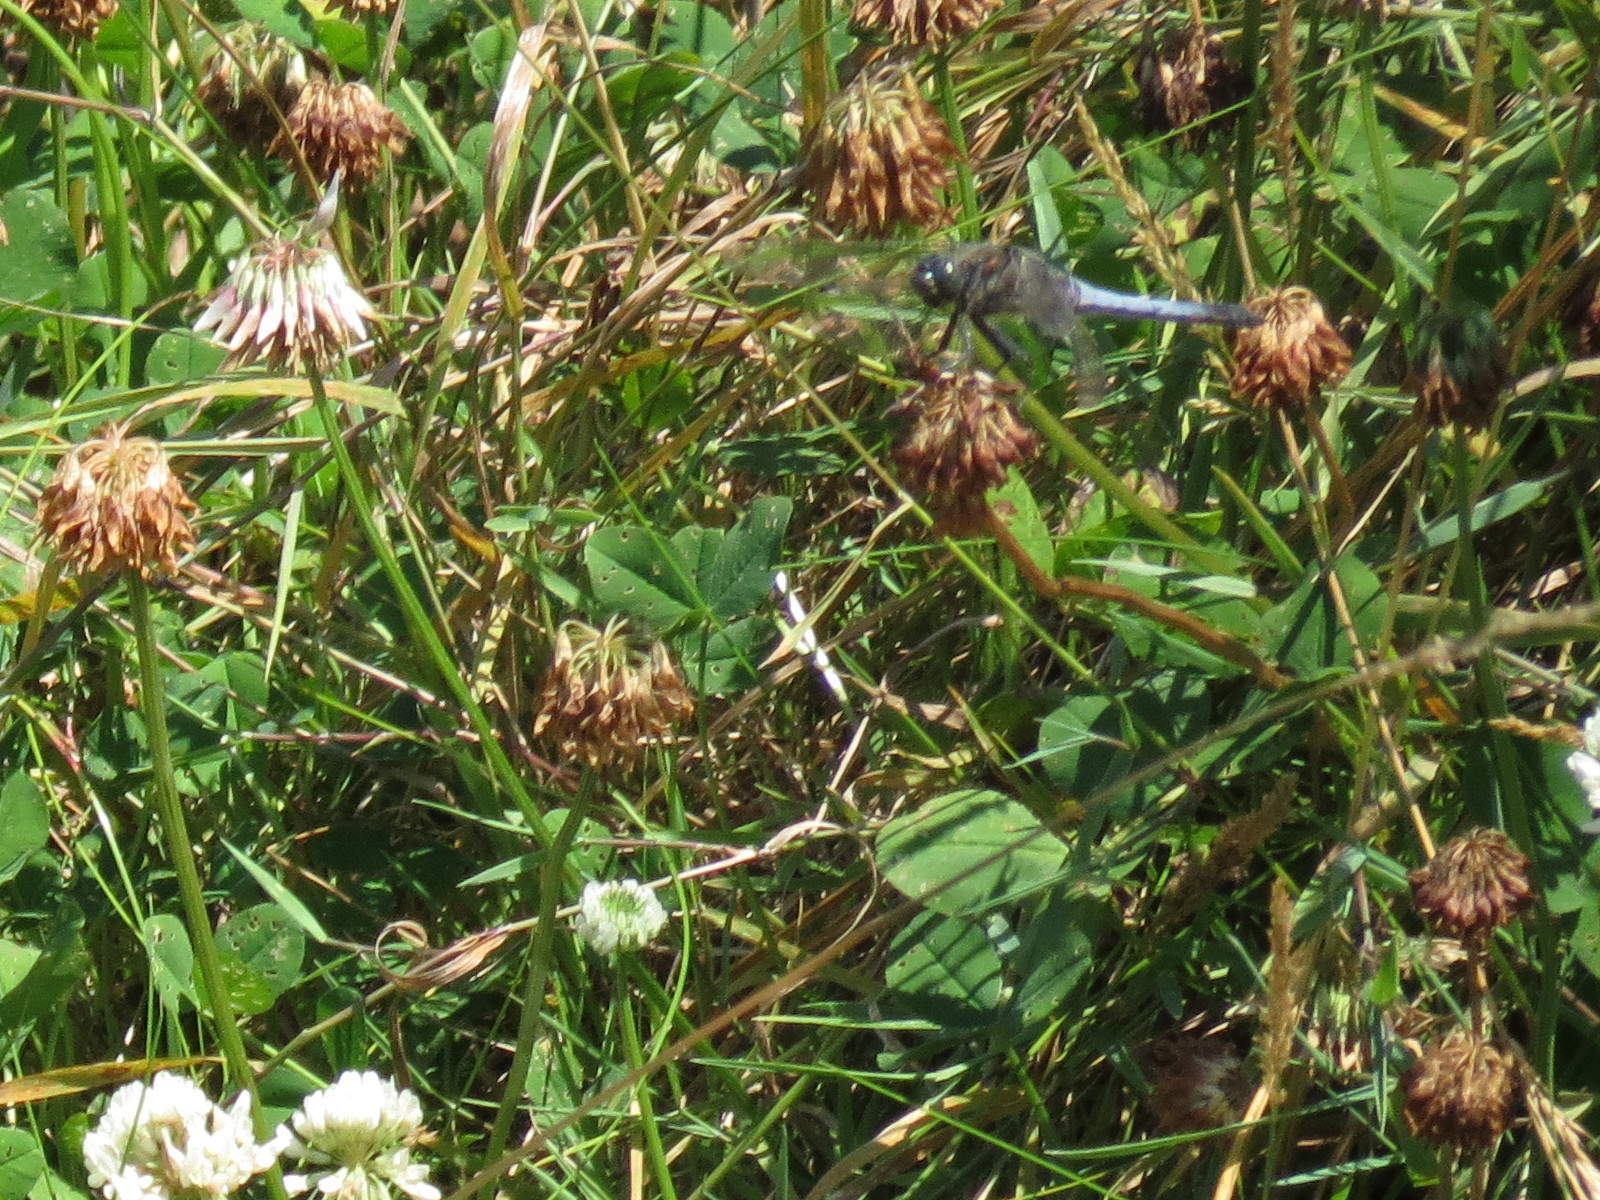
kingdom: Animalia
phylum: Arthropoda
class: Insecta
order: Odonata
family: Libellulidae
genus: Orthetrum
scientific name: Orthetrum cancellatum
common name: Black-tailed skimmer
